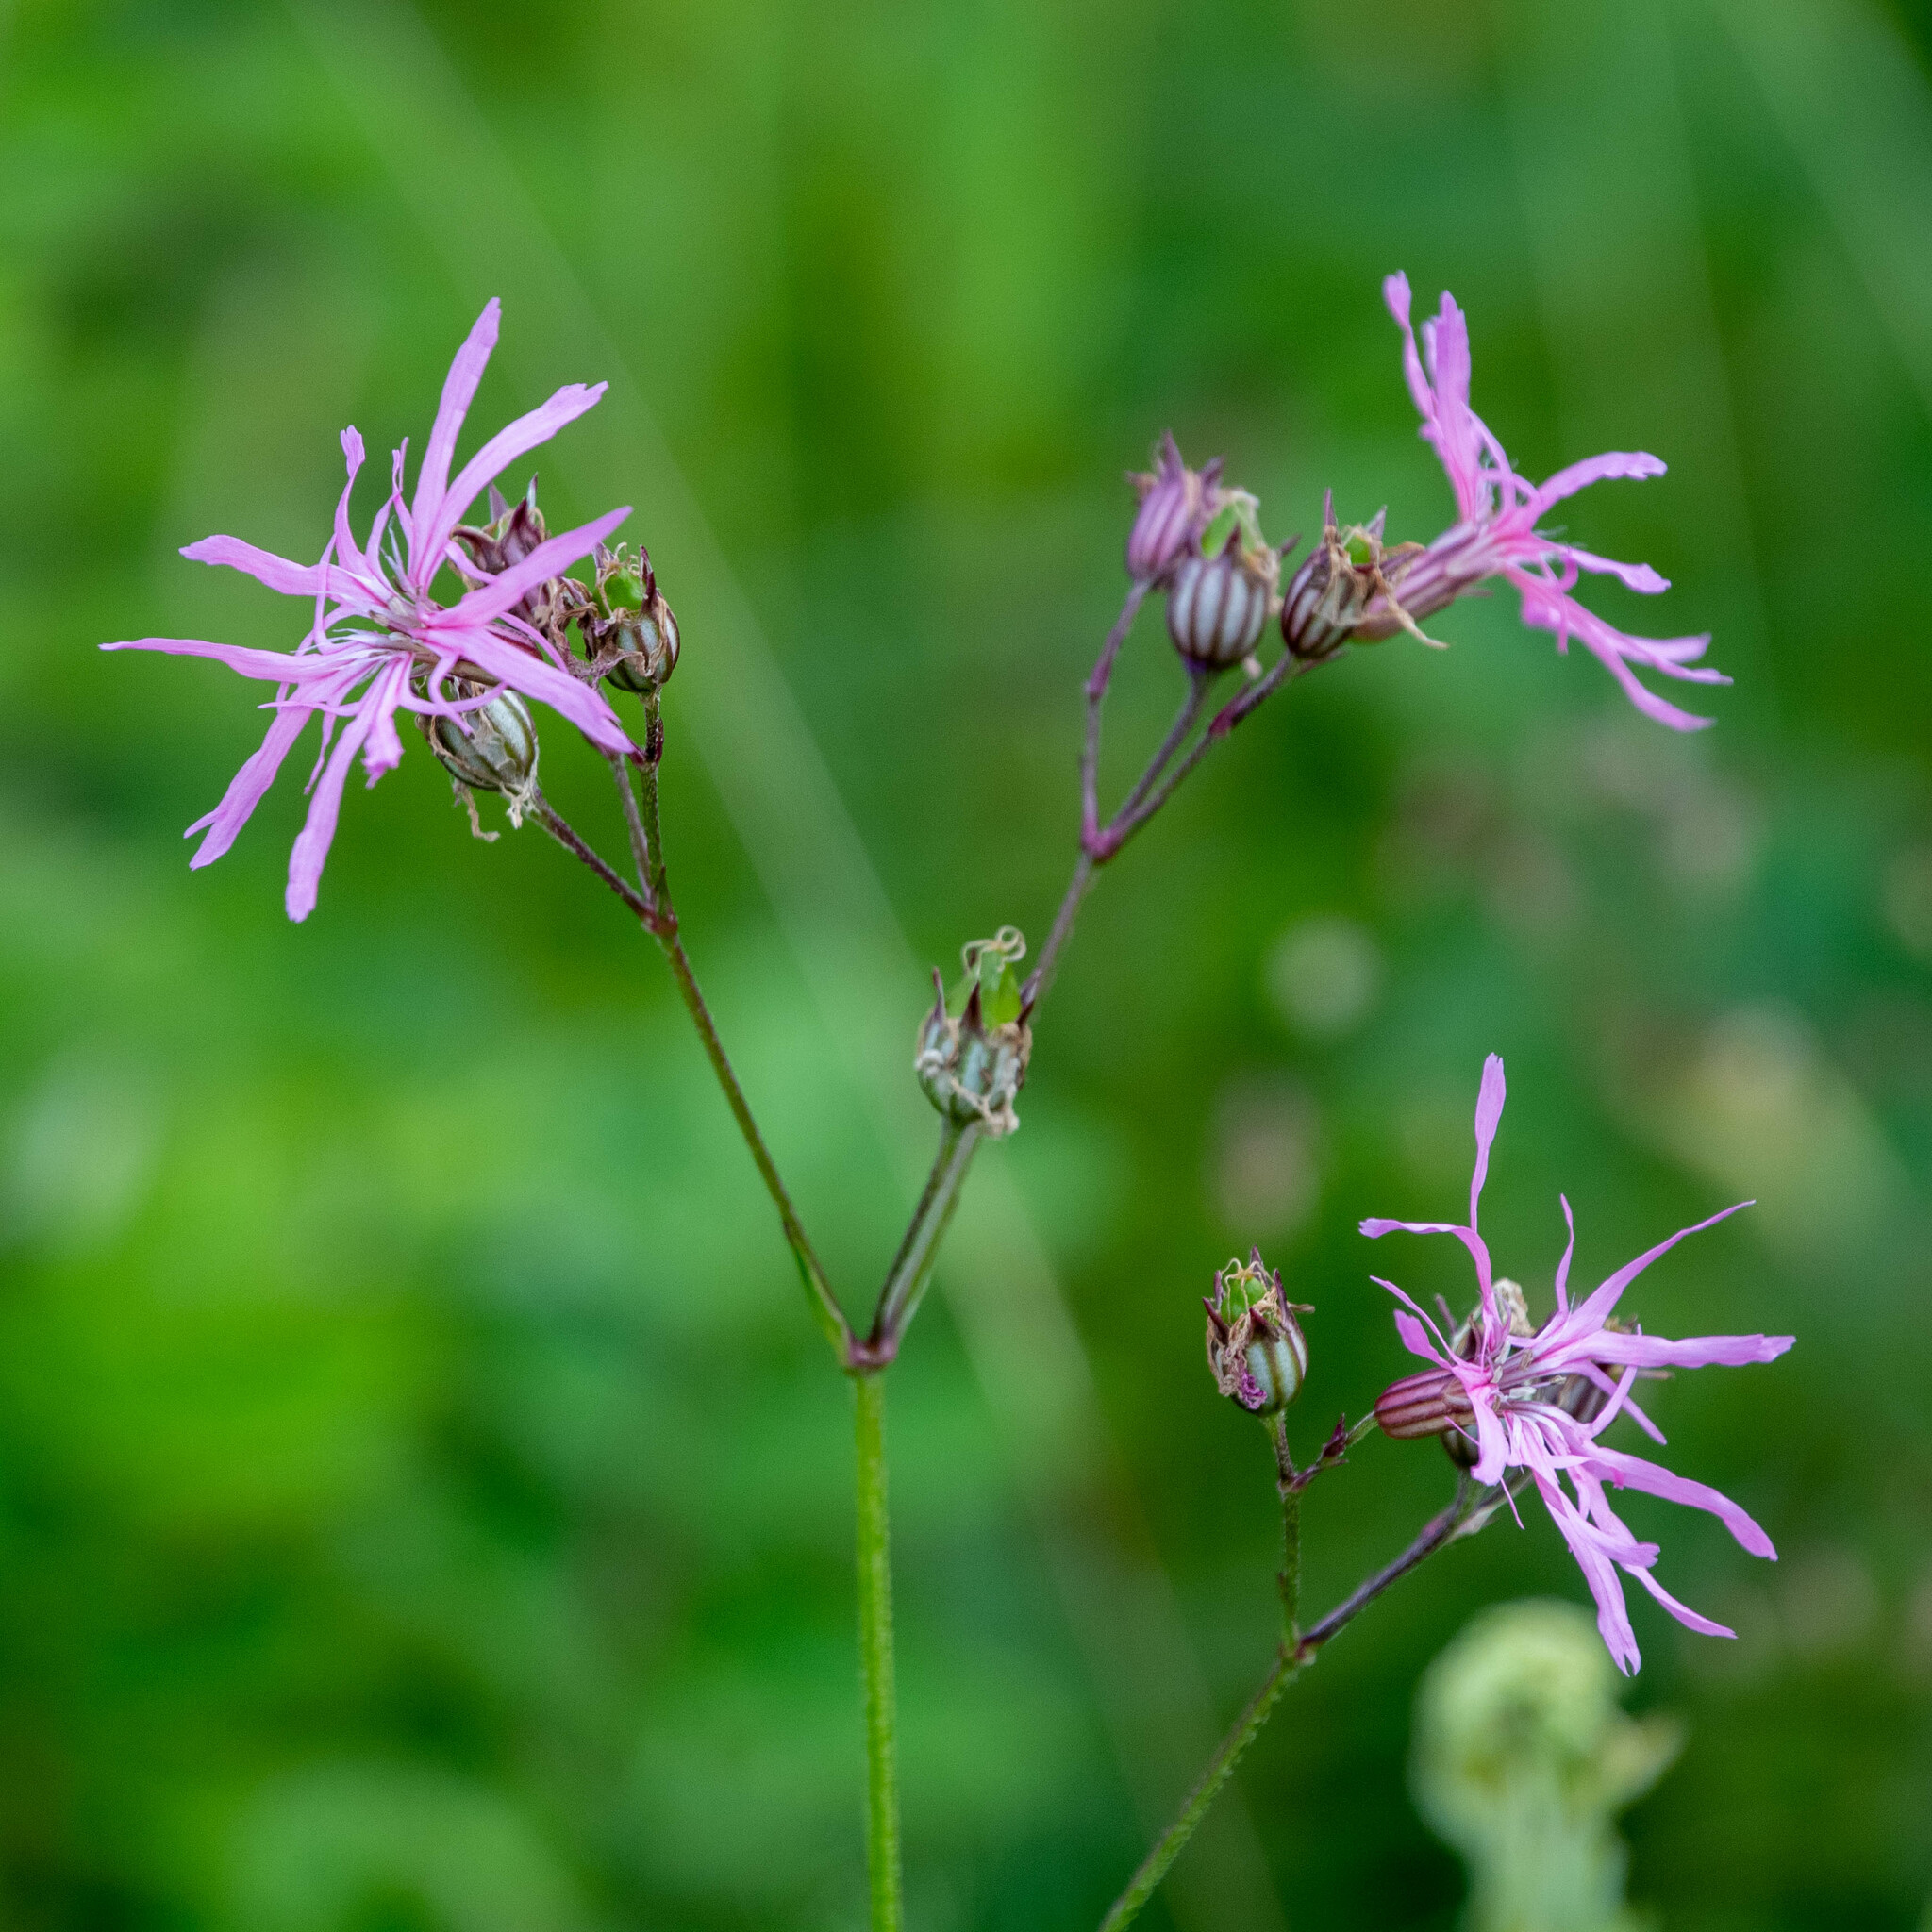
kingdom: Plantae
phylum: Tracheophyta
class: Magnoliopsida
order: Caryophyllales
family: Caryophyllaceae
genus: Silene
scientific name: Silene flos-cuculi
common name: Ragged-robin
